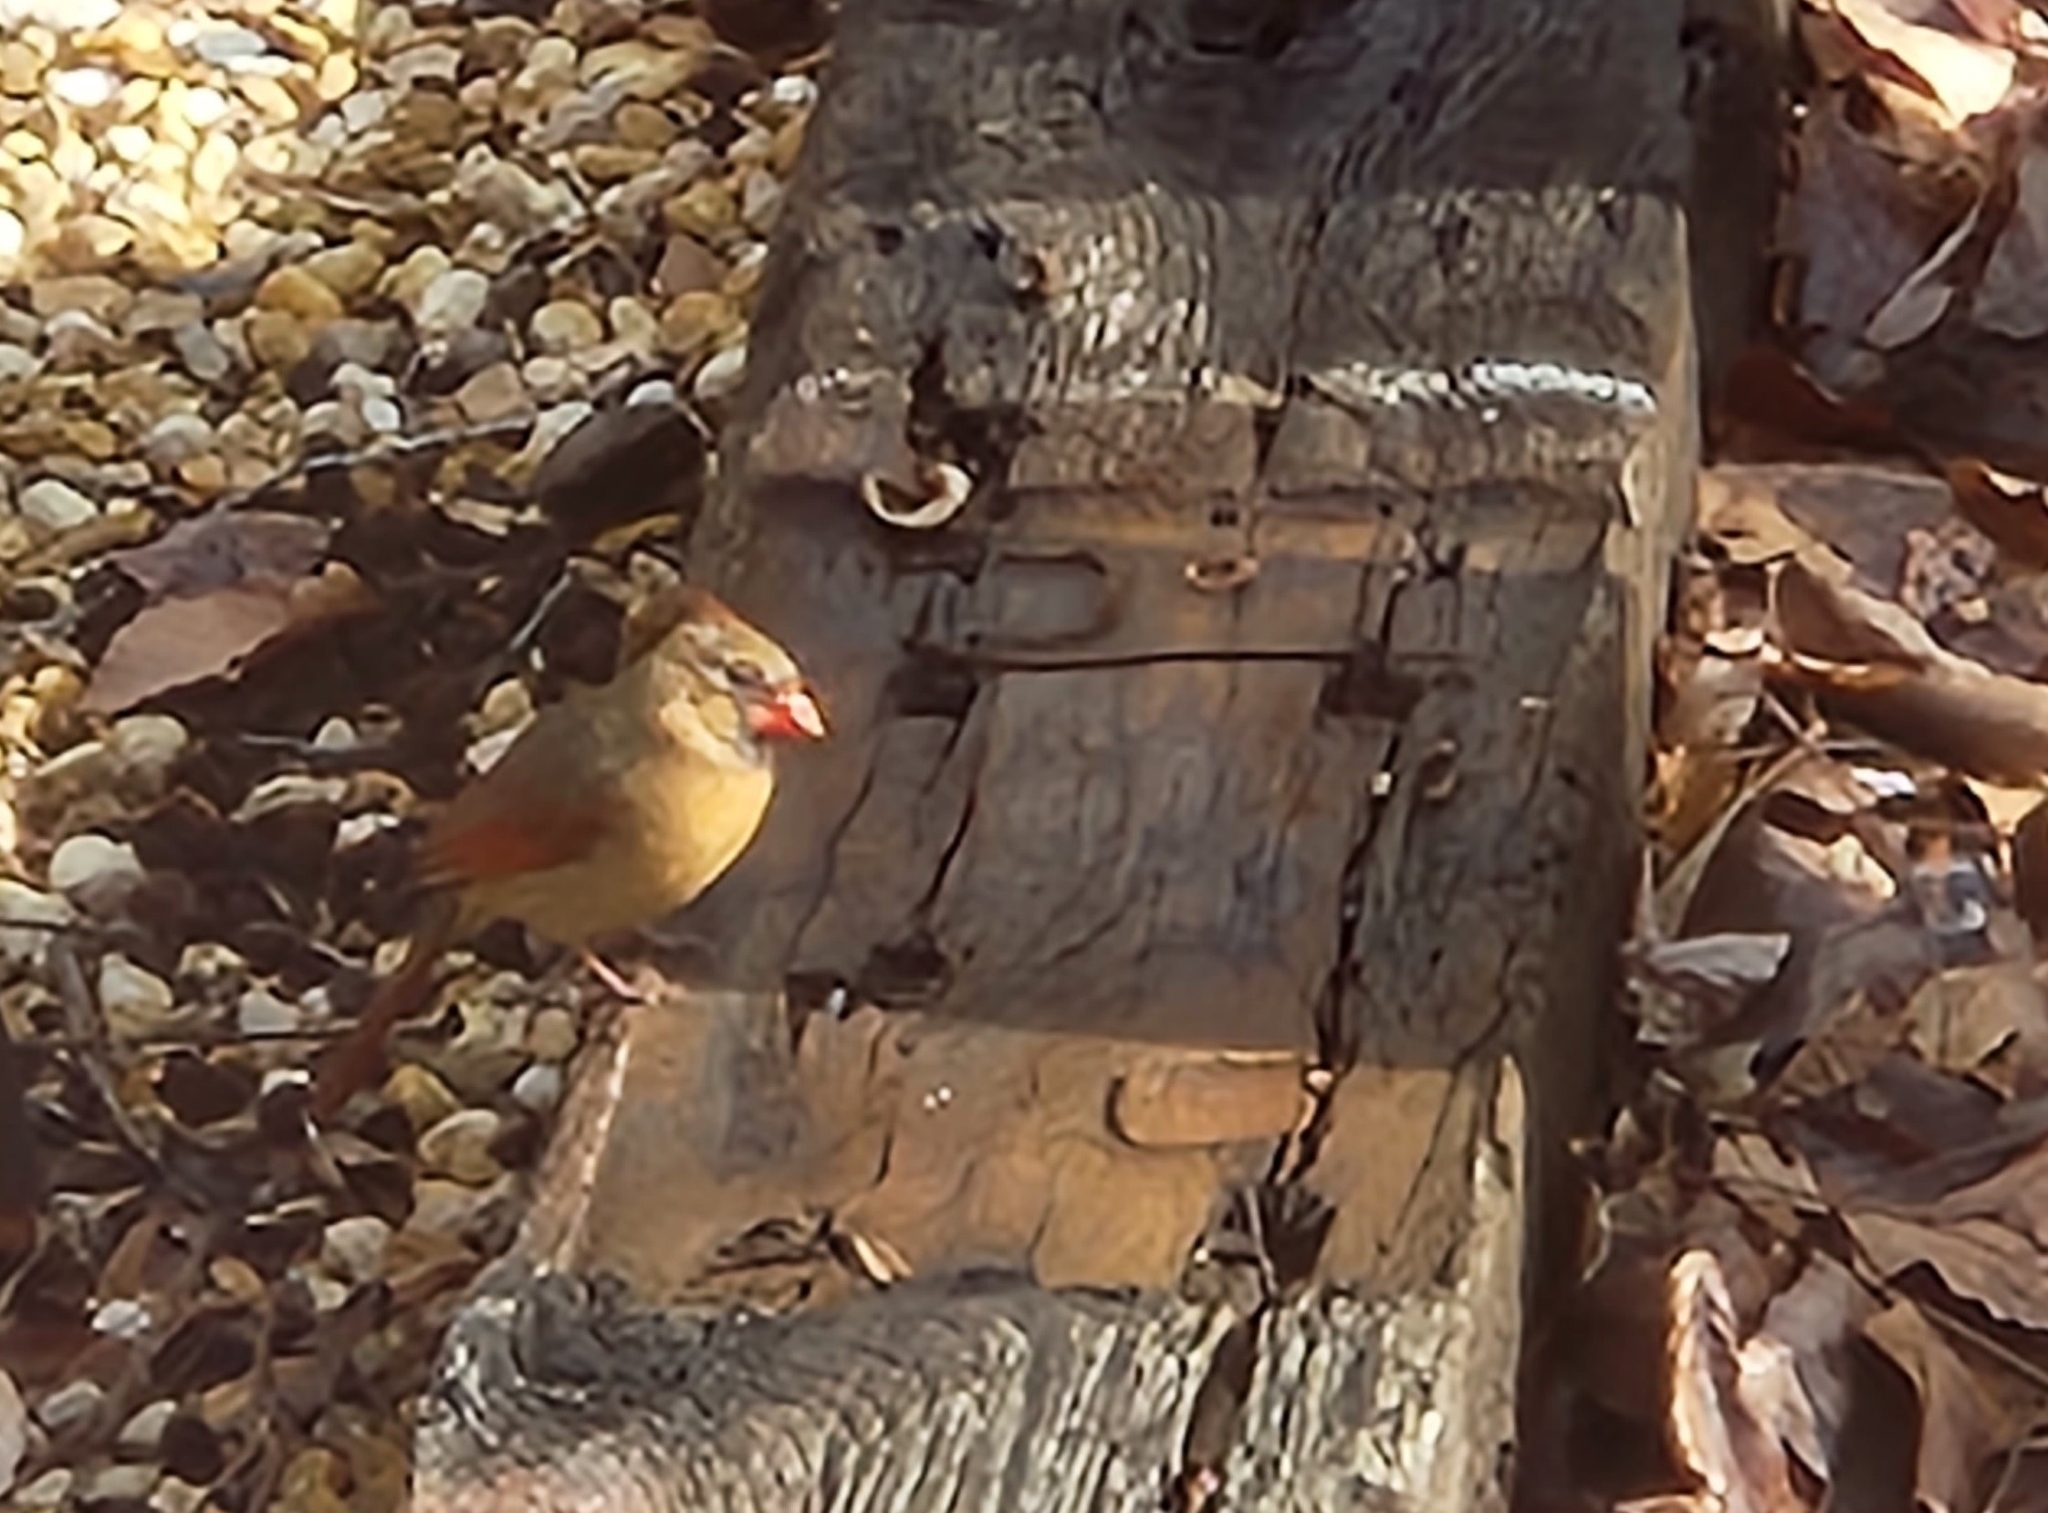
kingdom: Animalia
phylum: Chordata
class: Aves
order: Passeriformes
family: Cardinalidae
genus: Cardinalis
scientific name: Cardinalis cardinalis
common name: Northern cardinal
